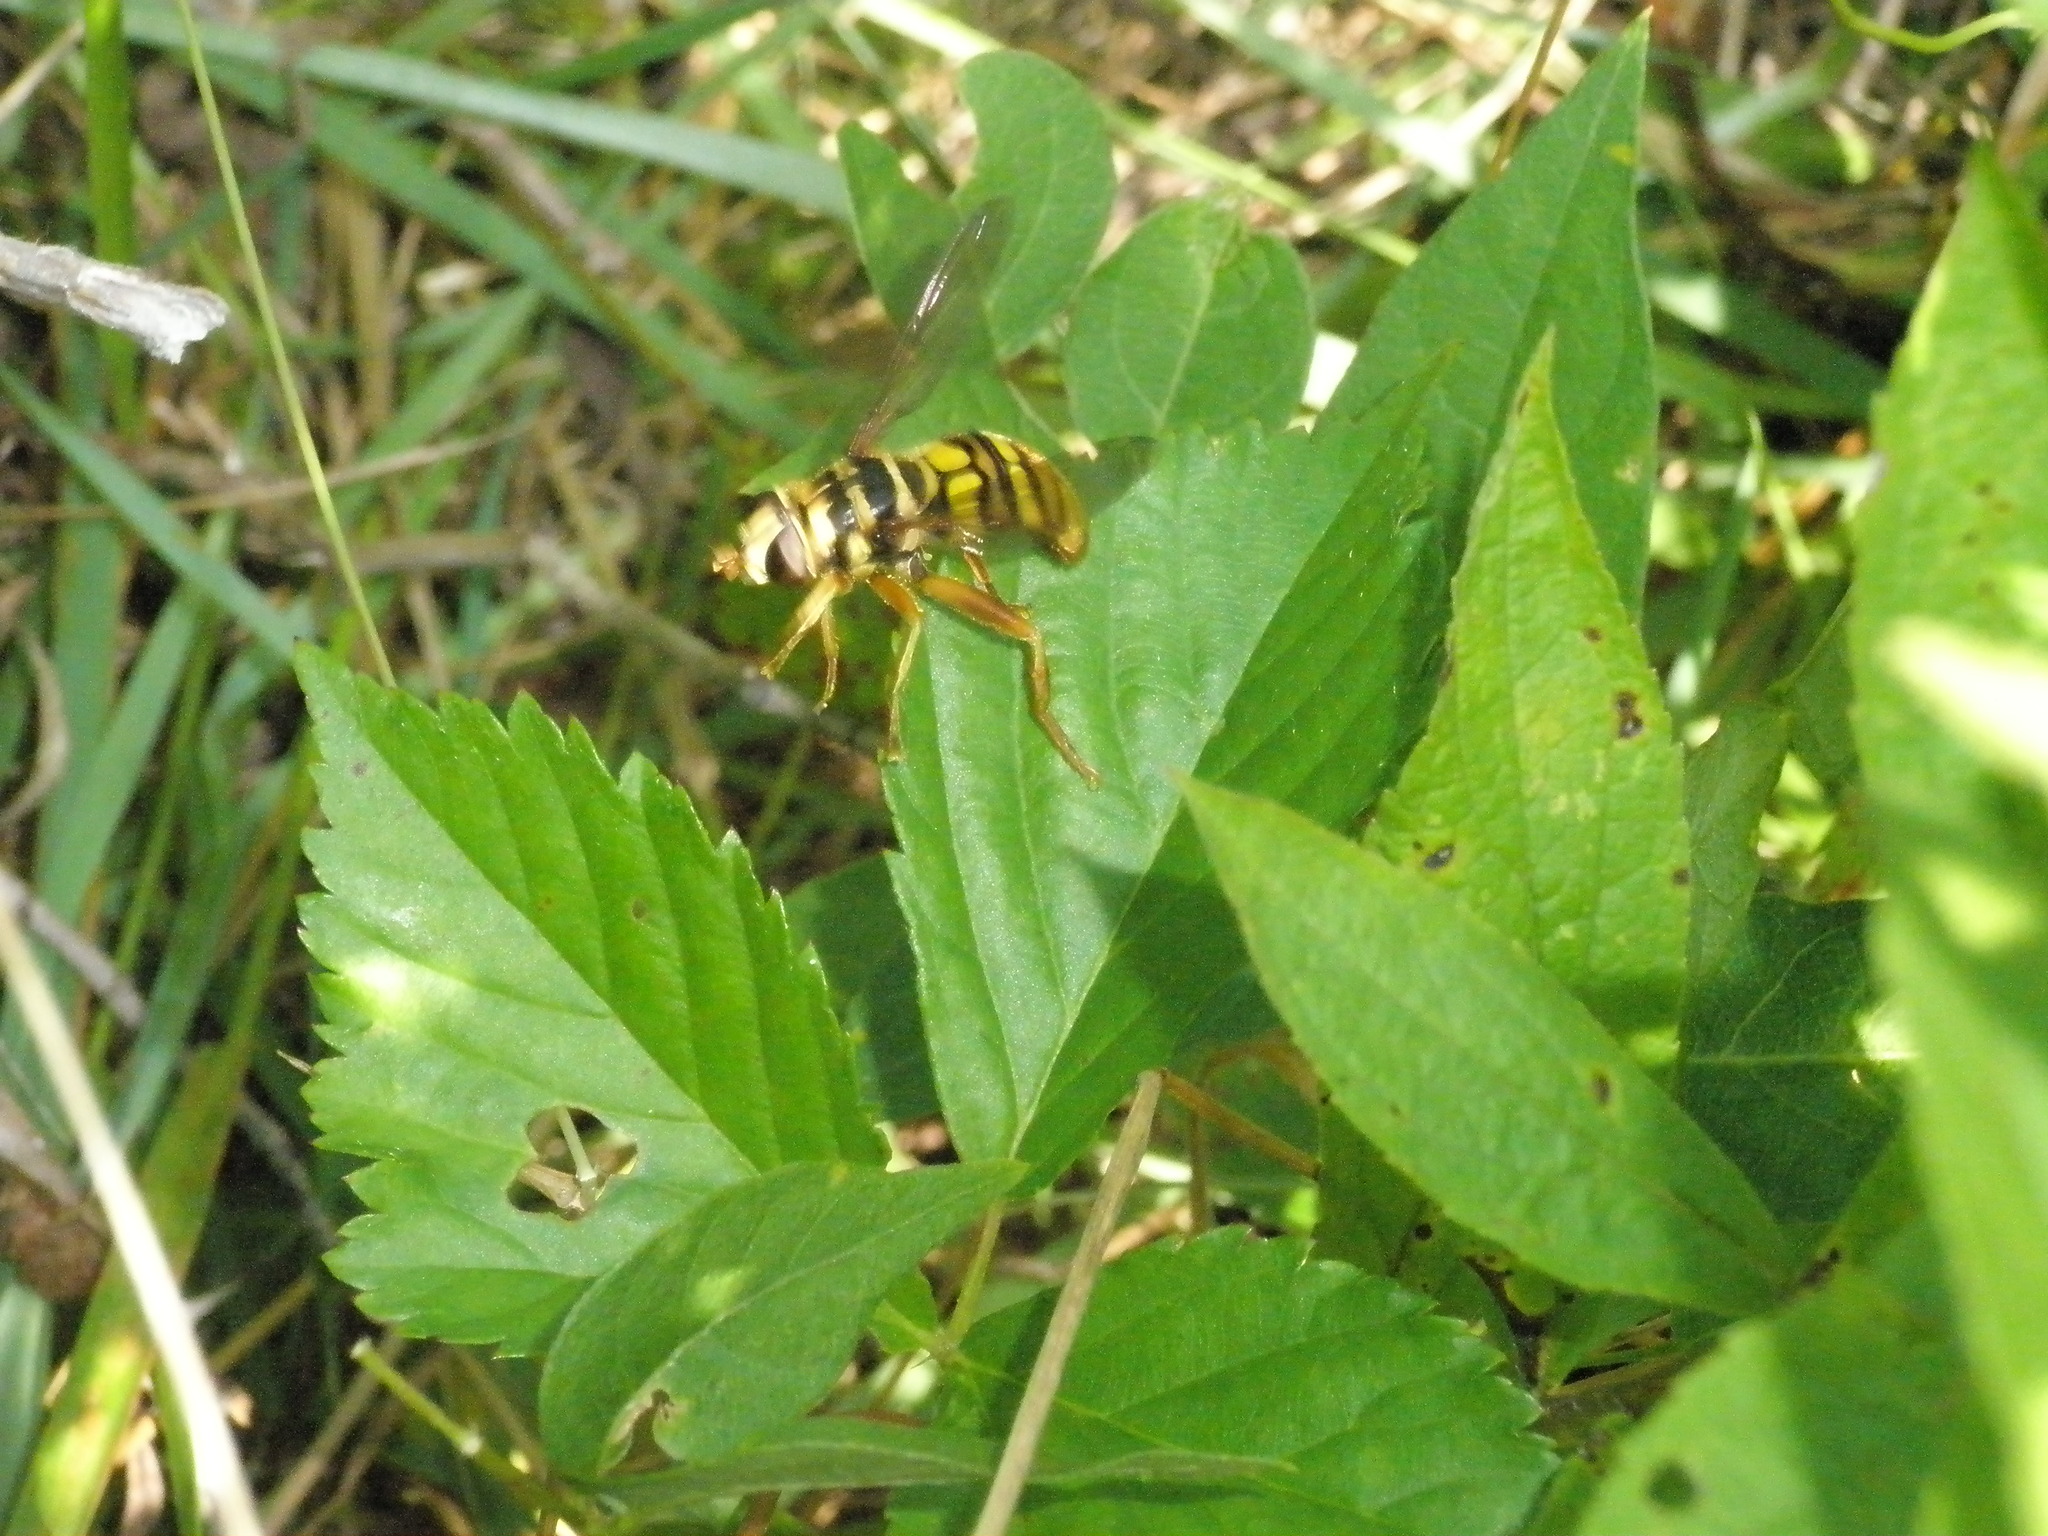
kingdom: Animalia
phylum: Arthropoda
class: Insecta
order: Diptera
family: Syrphidae
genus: Milesia
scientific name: Milesia virginiensis
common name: Virginia giant
